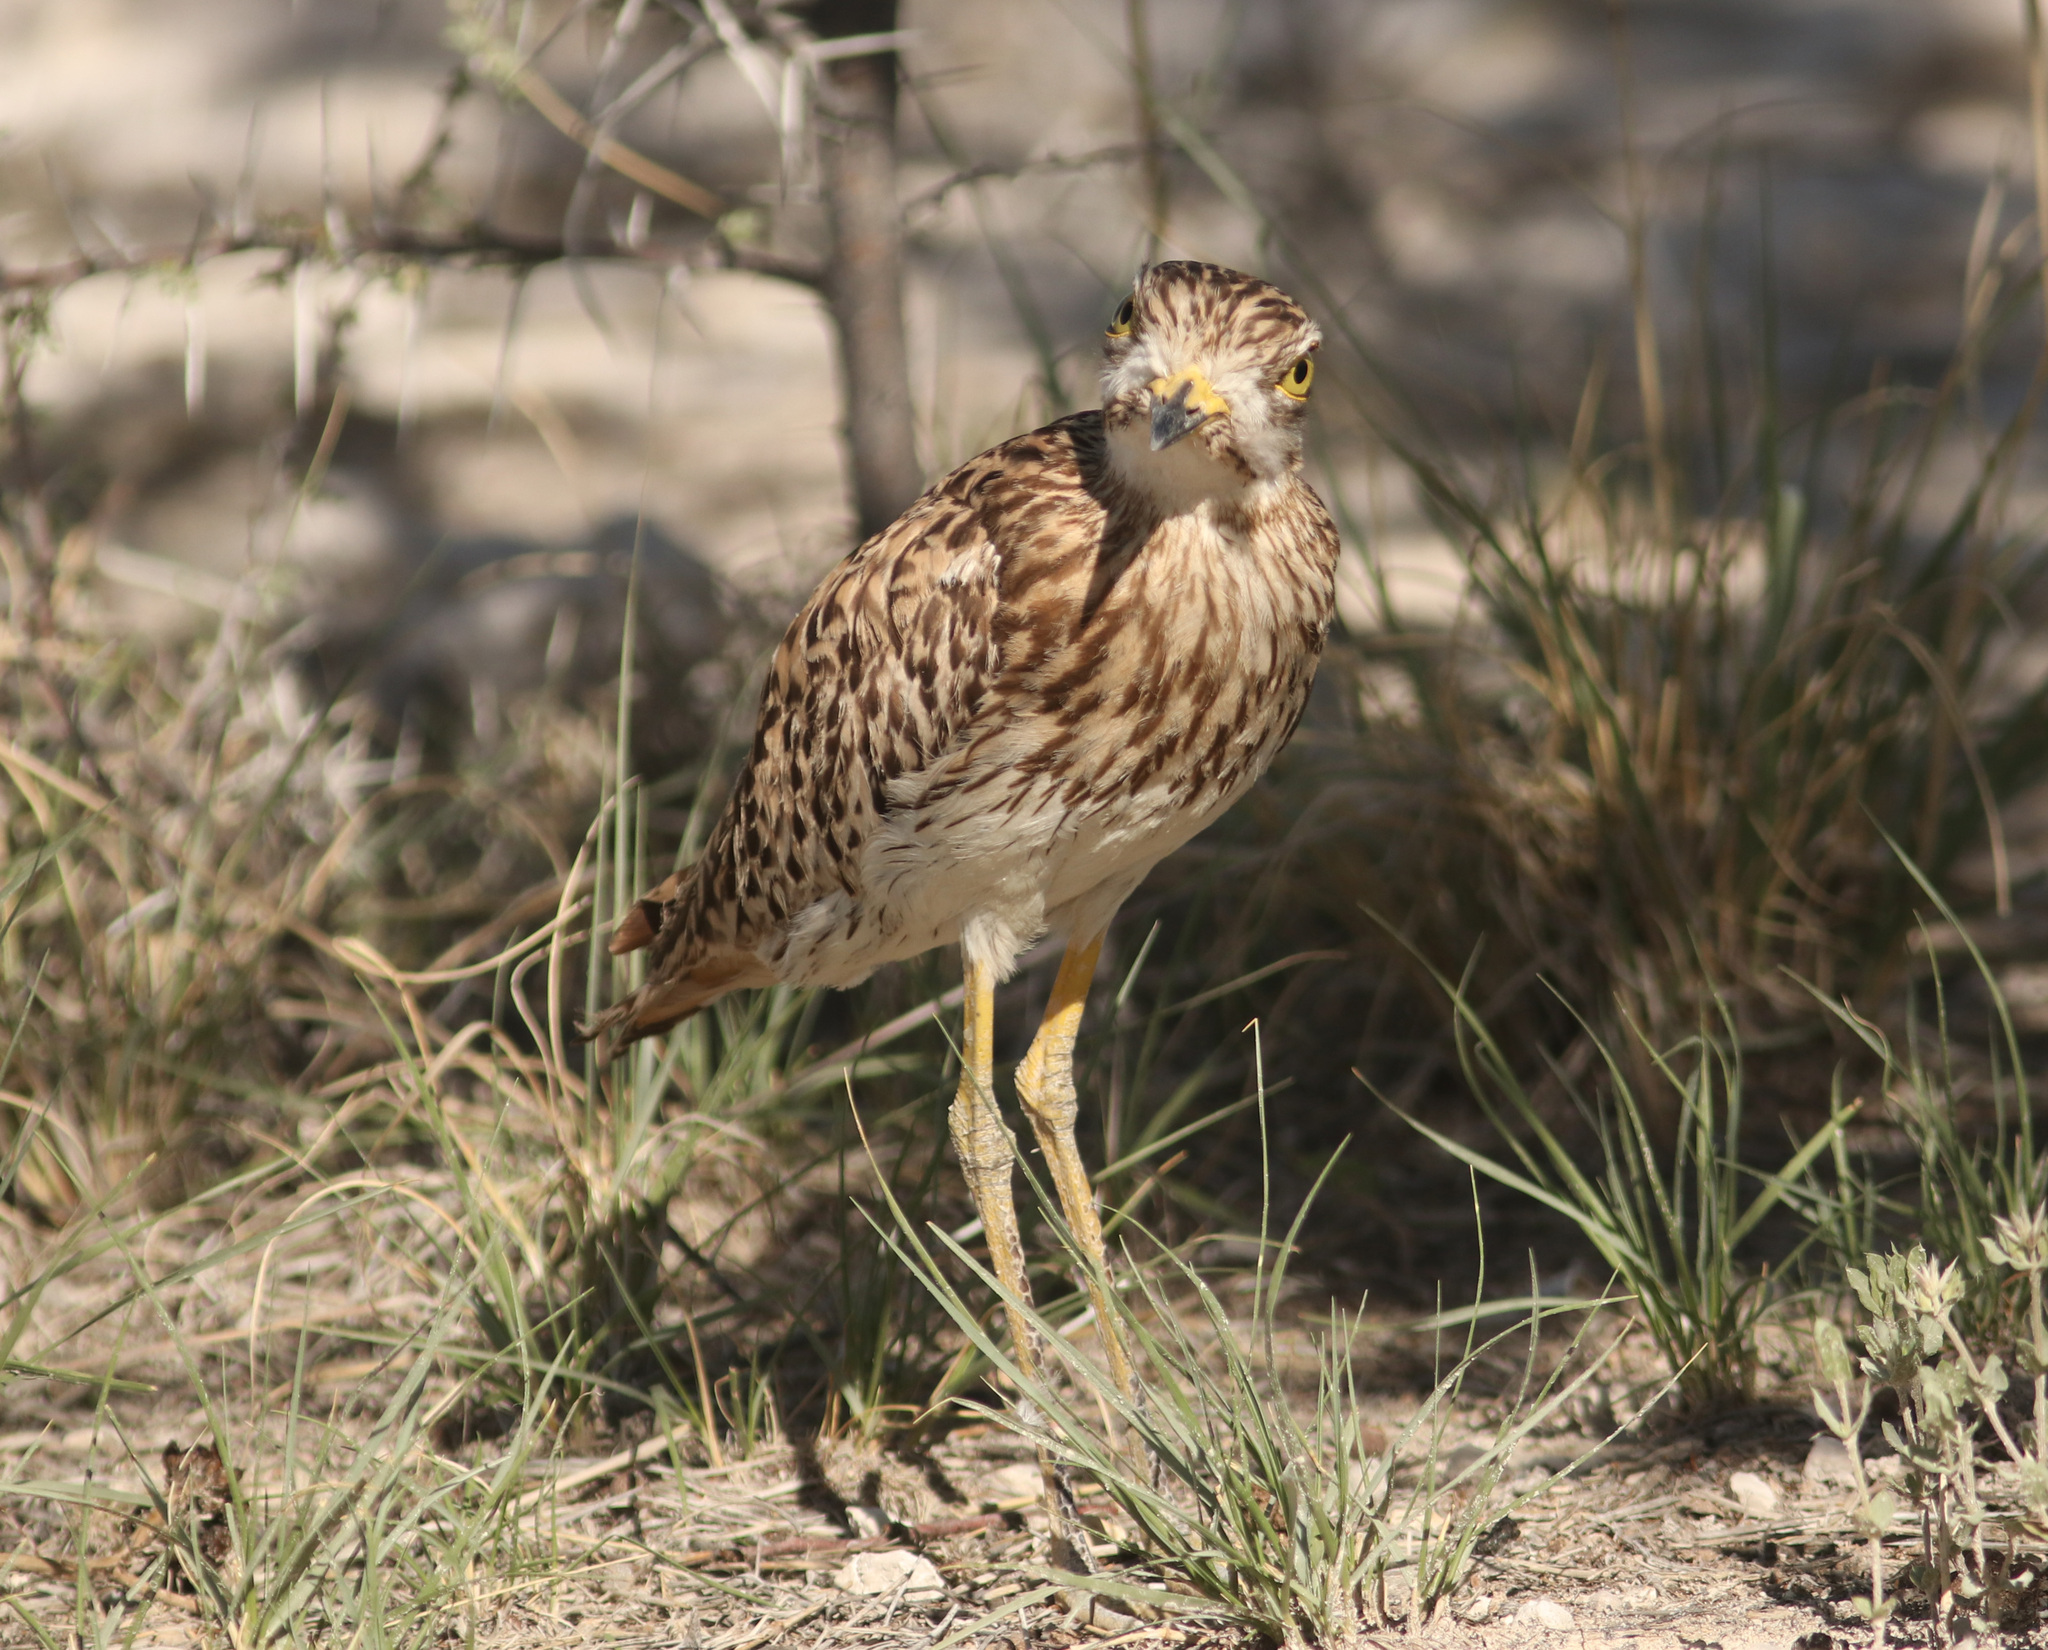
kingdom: Animalia
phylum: Chordata
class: Aves
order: Charadriiformes
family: Burhinidae
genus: Burhinus
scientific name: Burhinus capensis
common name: Spotted thick-knee
